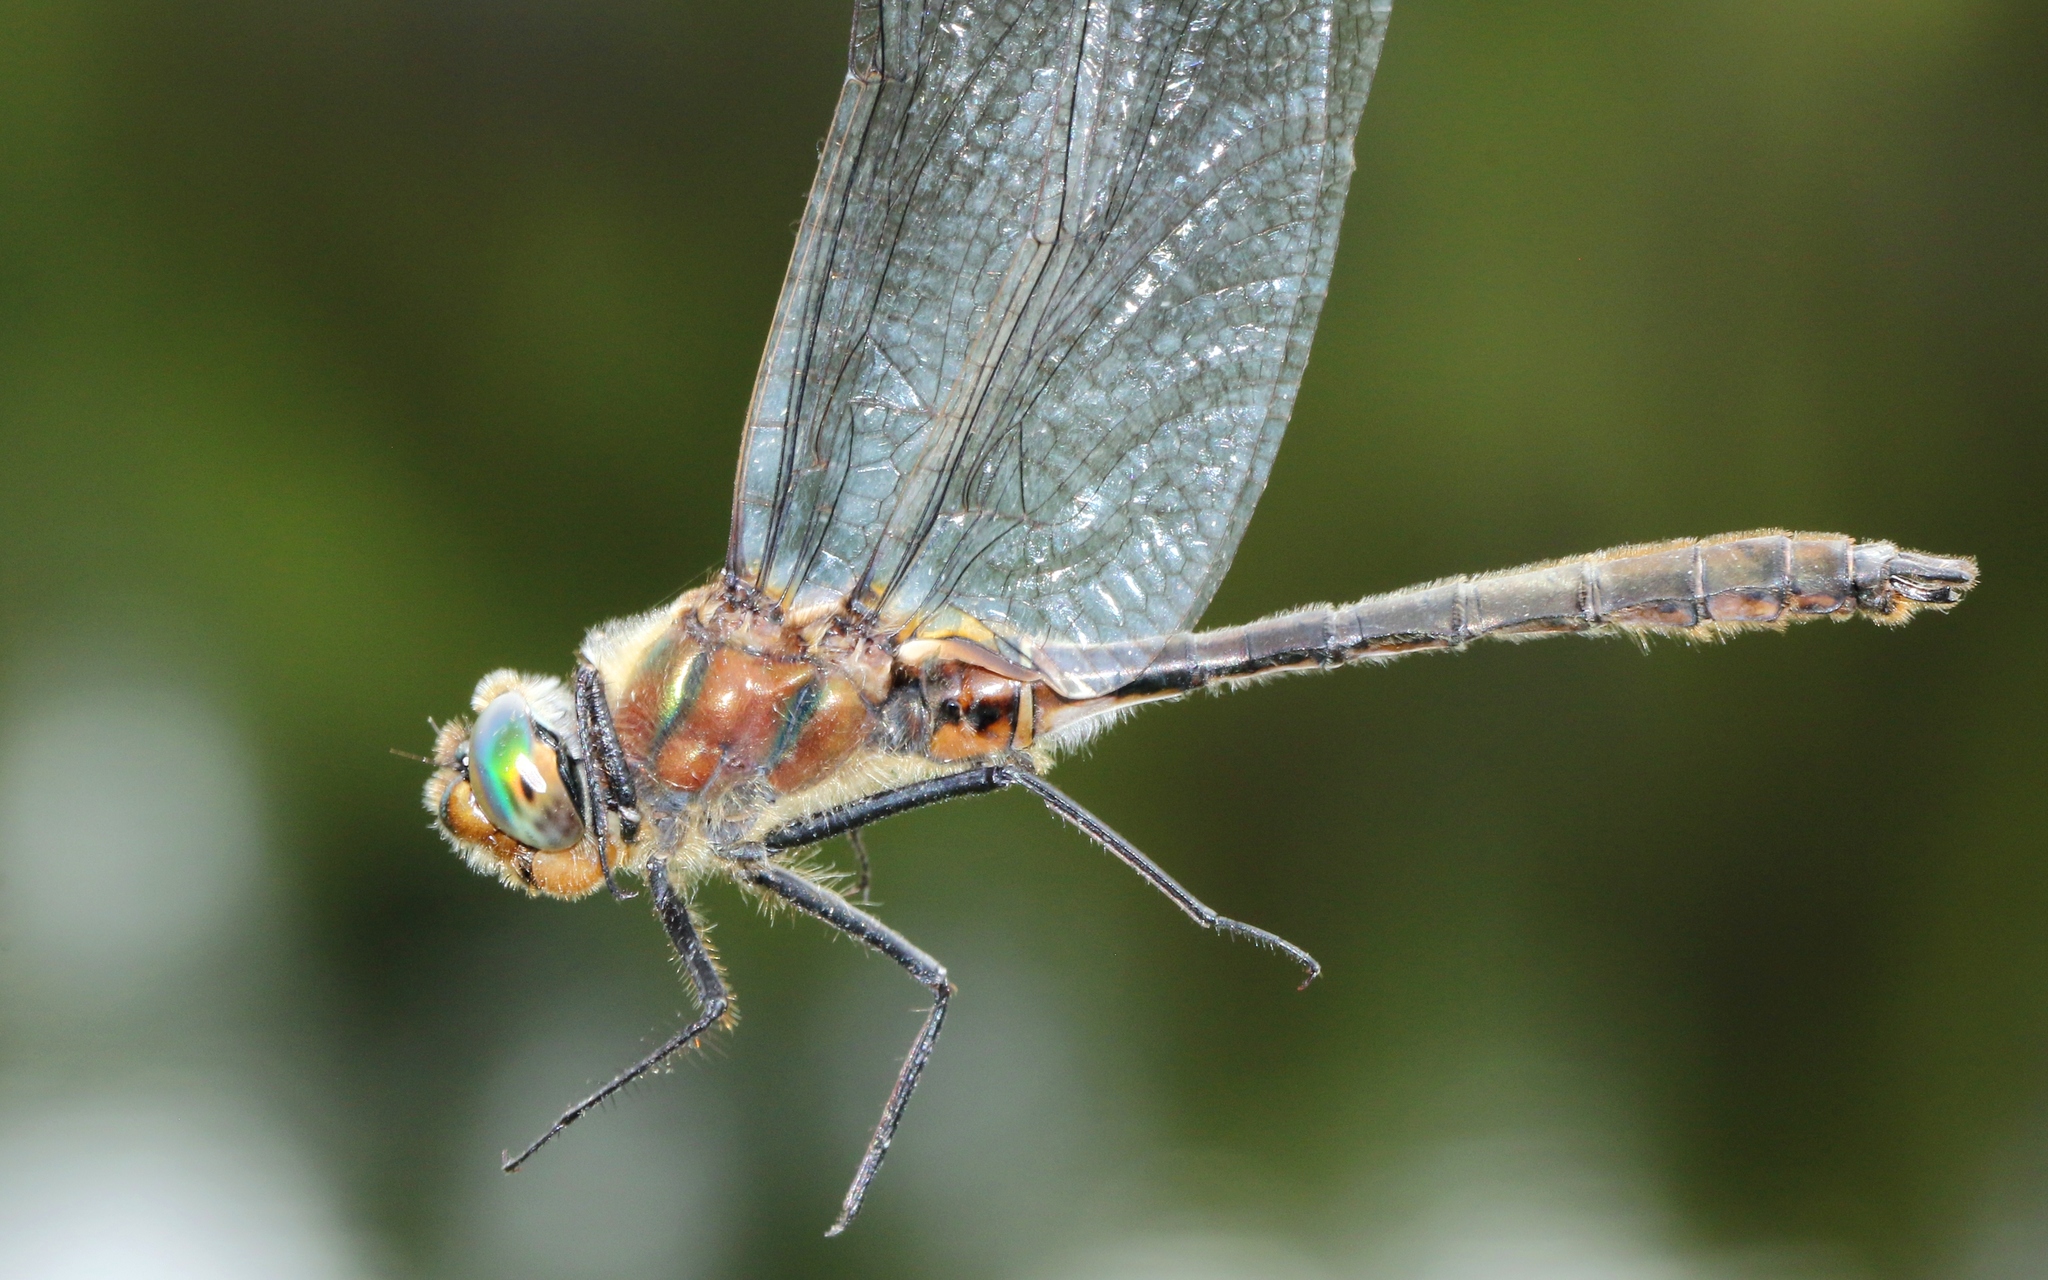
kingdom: Animalia
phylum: Arthropoda
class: Insecta
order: Odonata
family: Corduliidae
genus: Cordulia
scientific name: Cordulia shurtleffii
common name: American emerald
